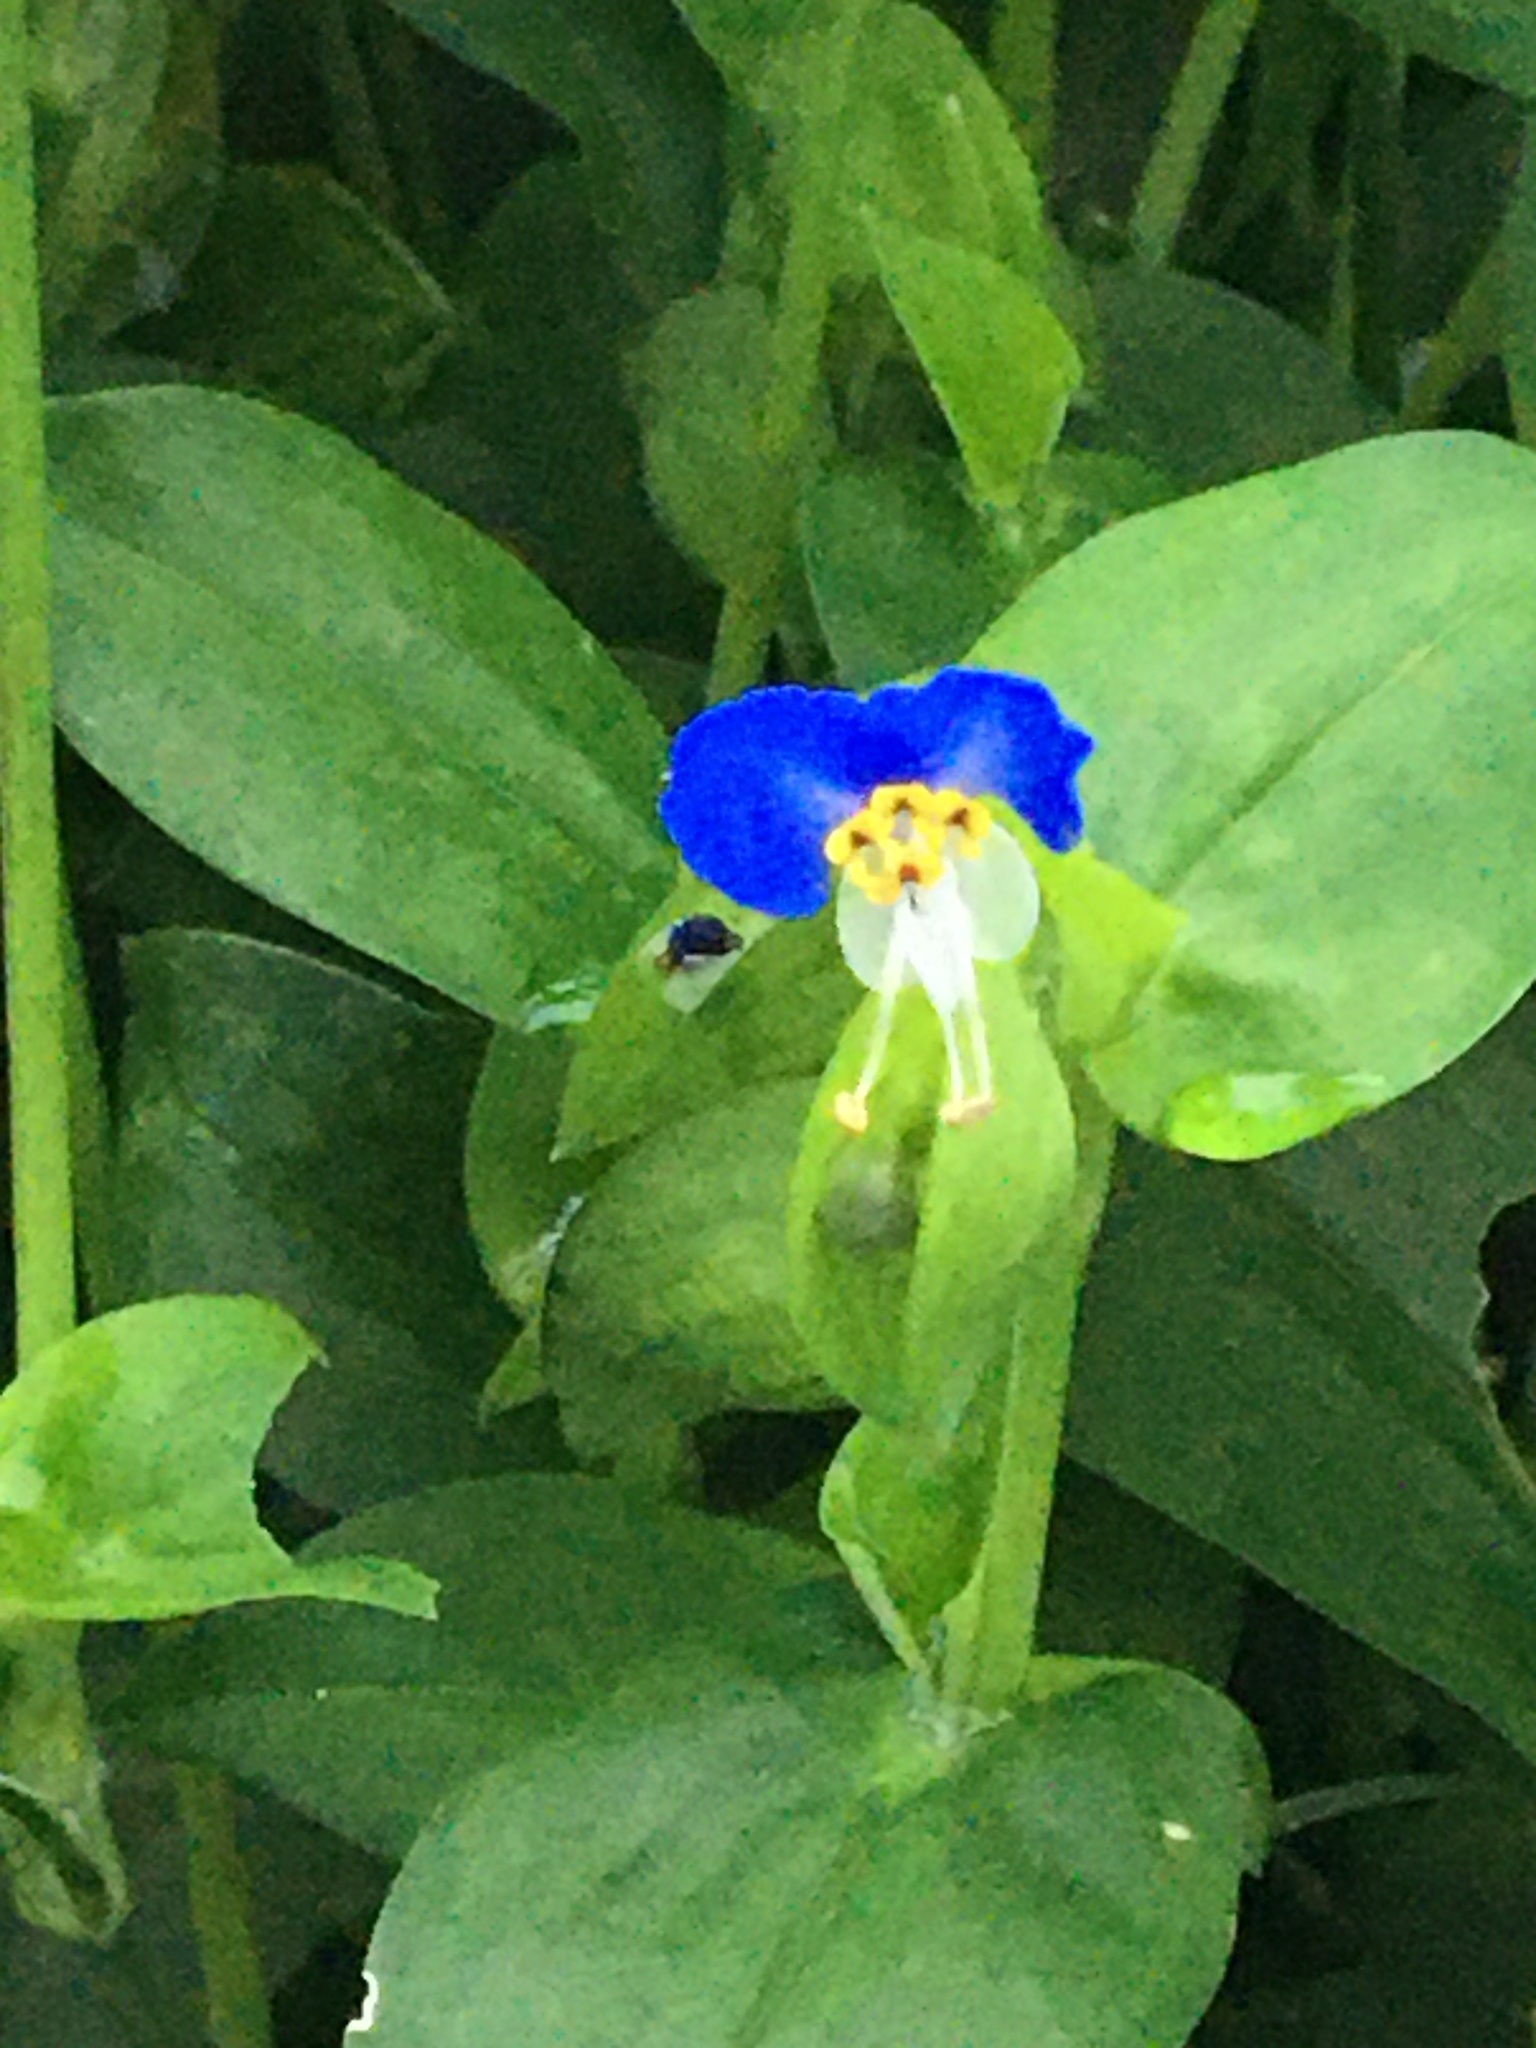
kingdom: Plantae
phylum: Tracheophyta
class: Liliopsida
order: Commelinales
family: Commelinaceae
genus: Commelina
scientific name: Commelina communis
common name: Asiatic dayflower
